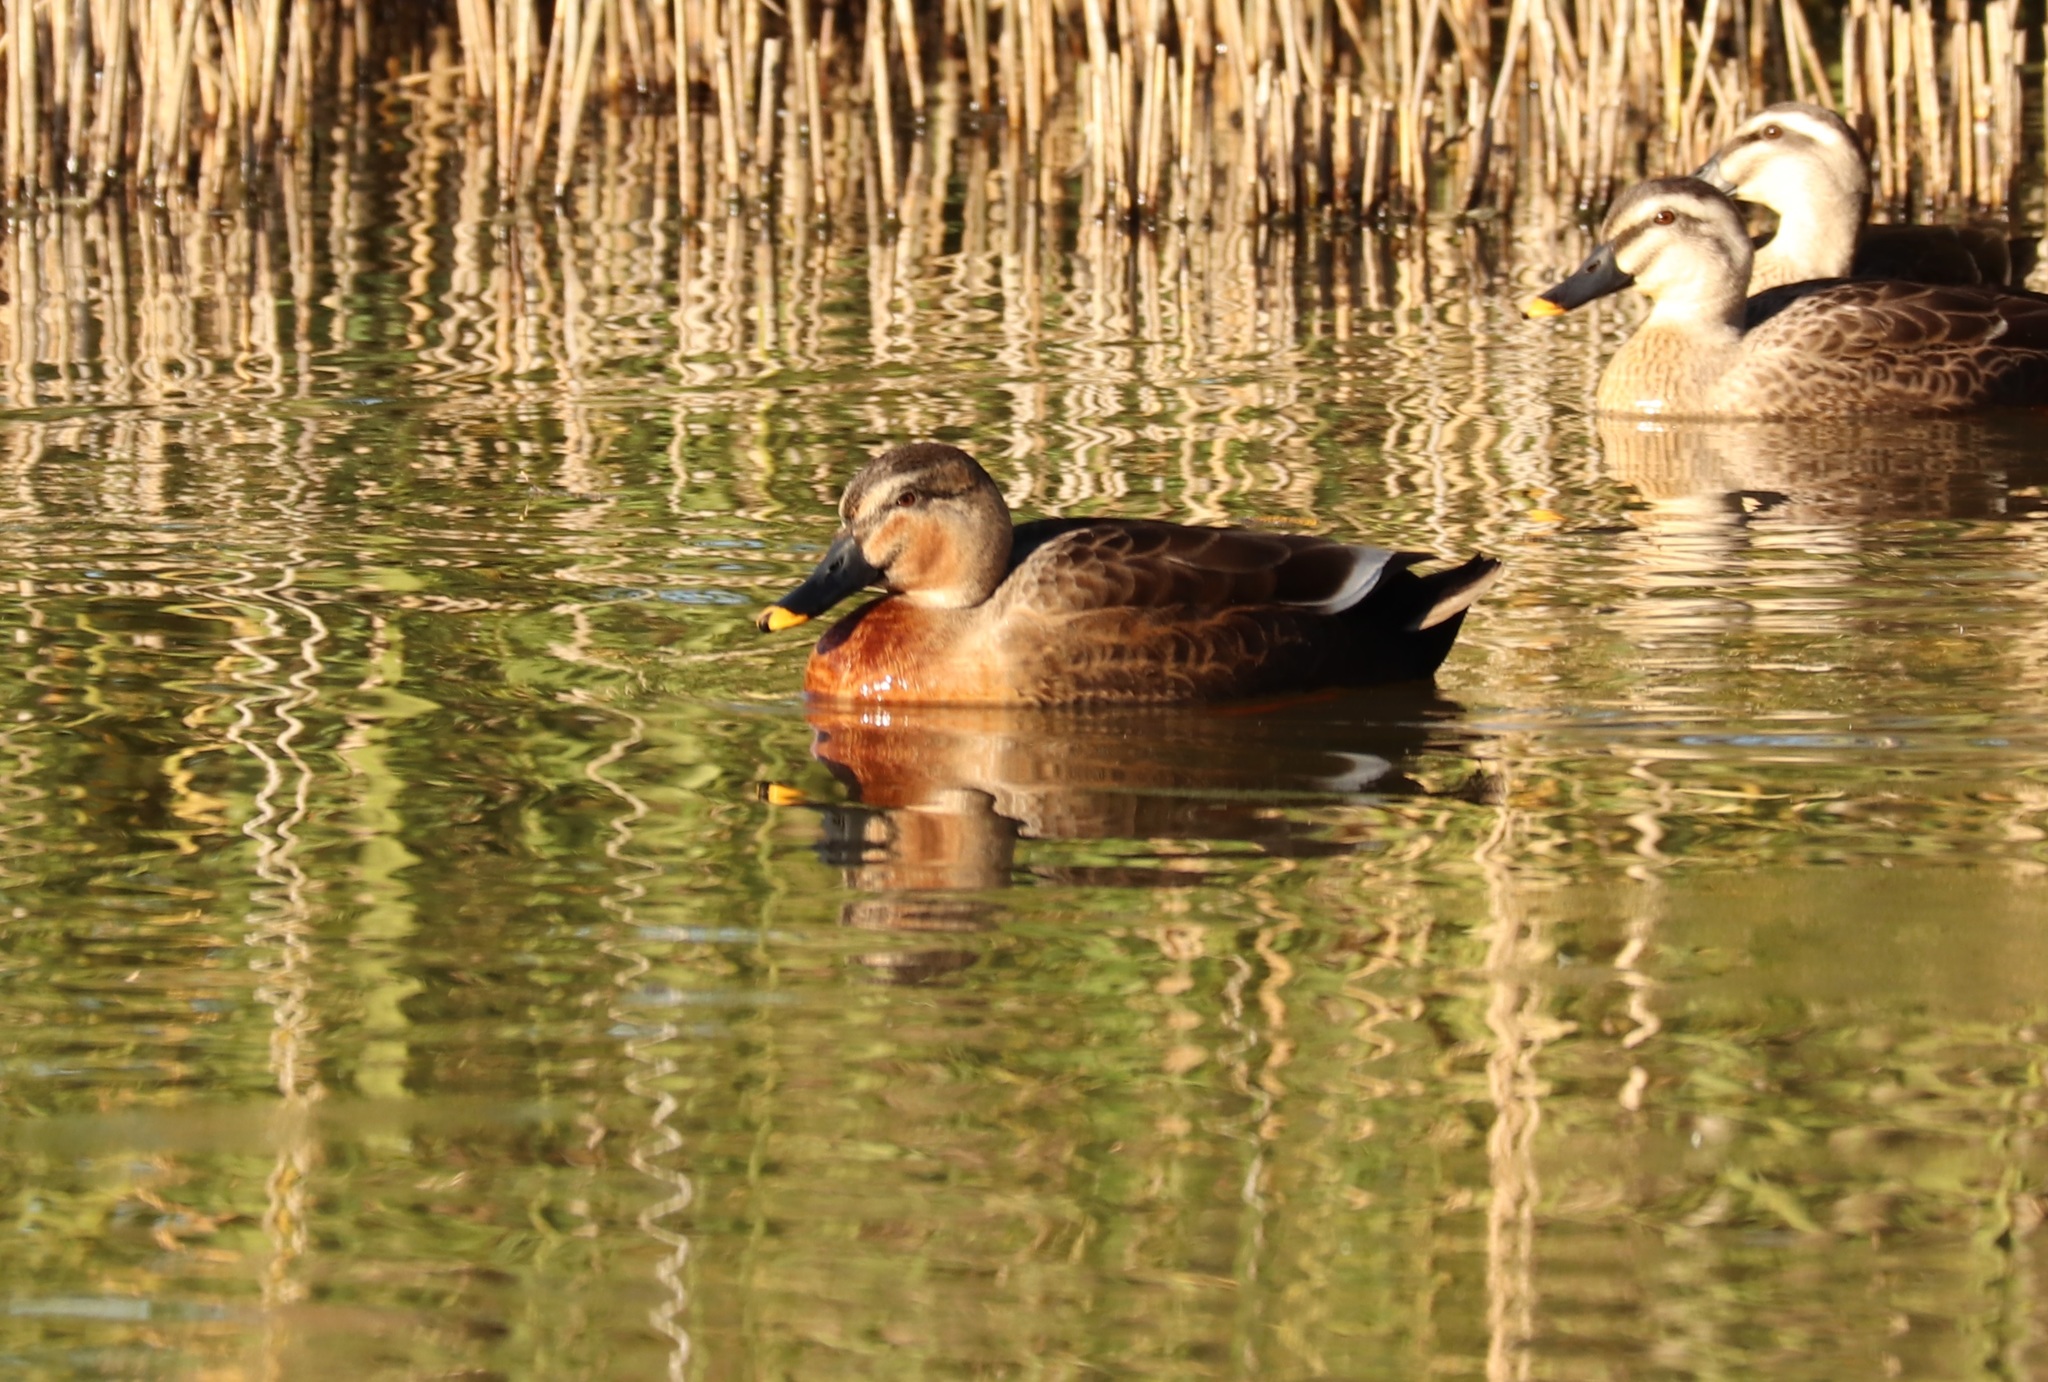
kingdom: Animalia
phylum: Chordata
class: Aves
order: Anseriformes
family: Anatidae
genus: Anas
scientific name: Anas
